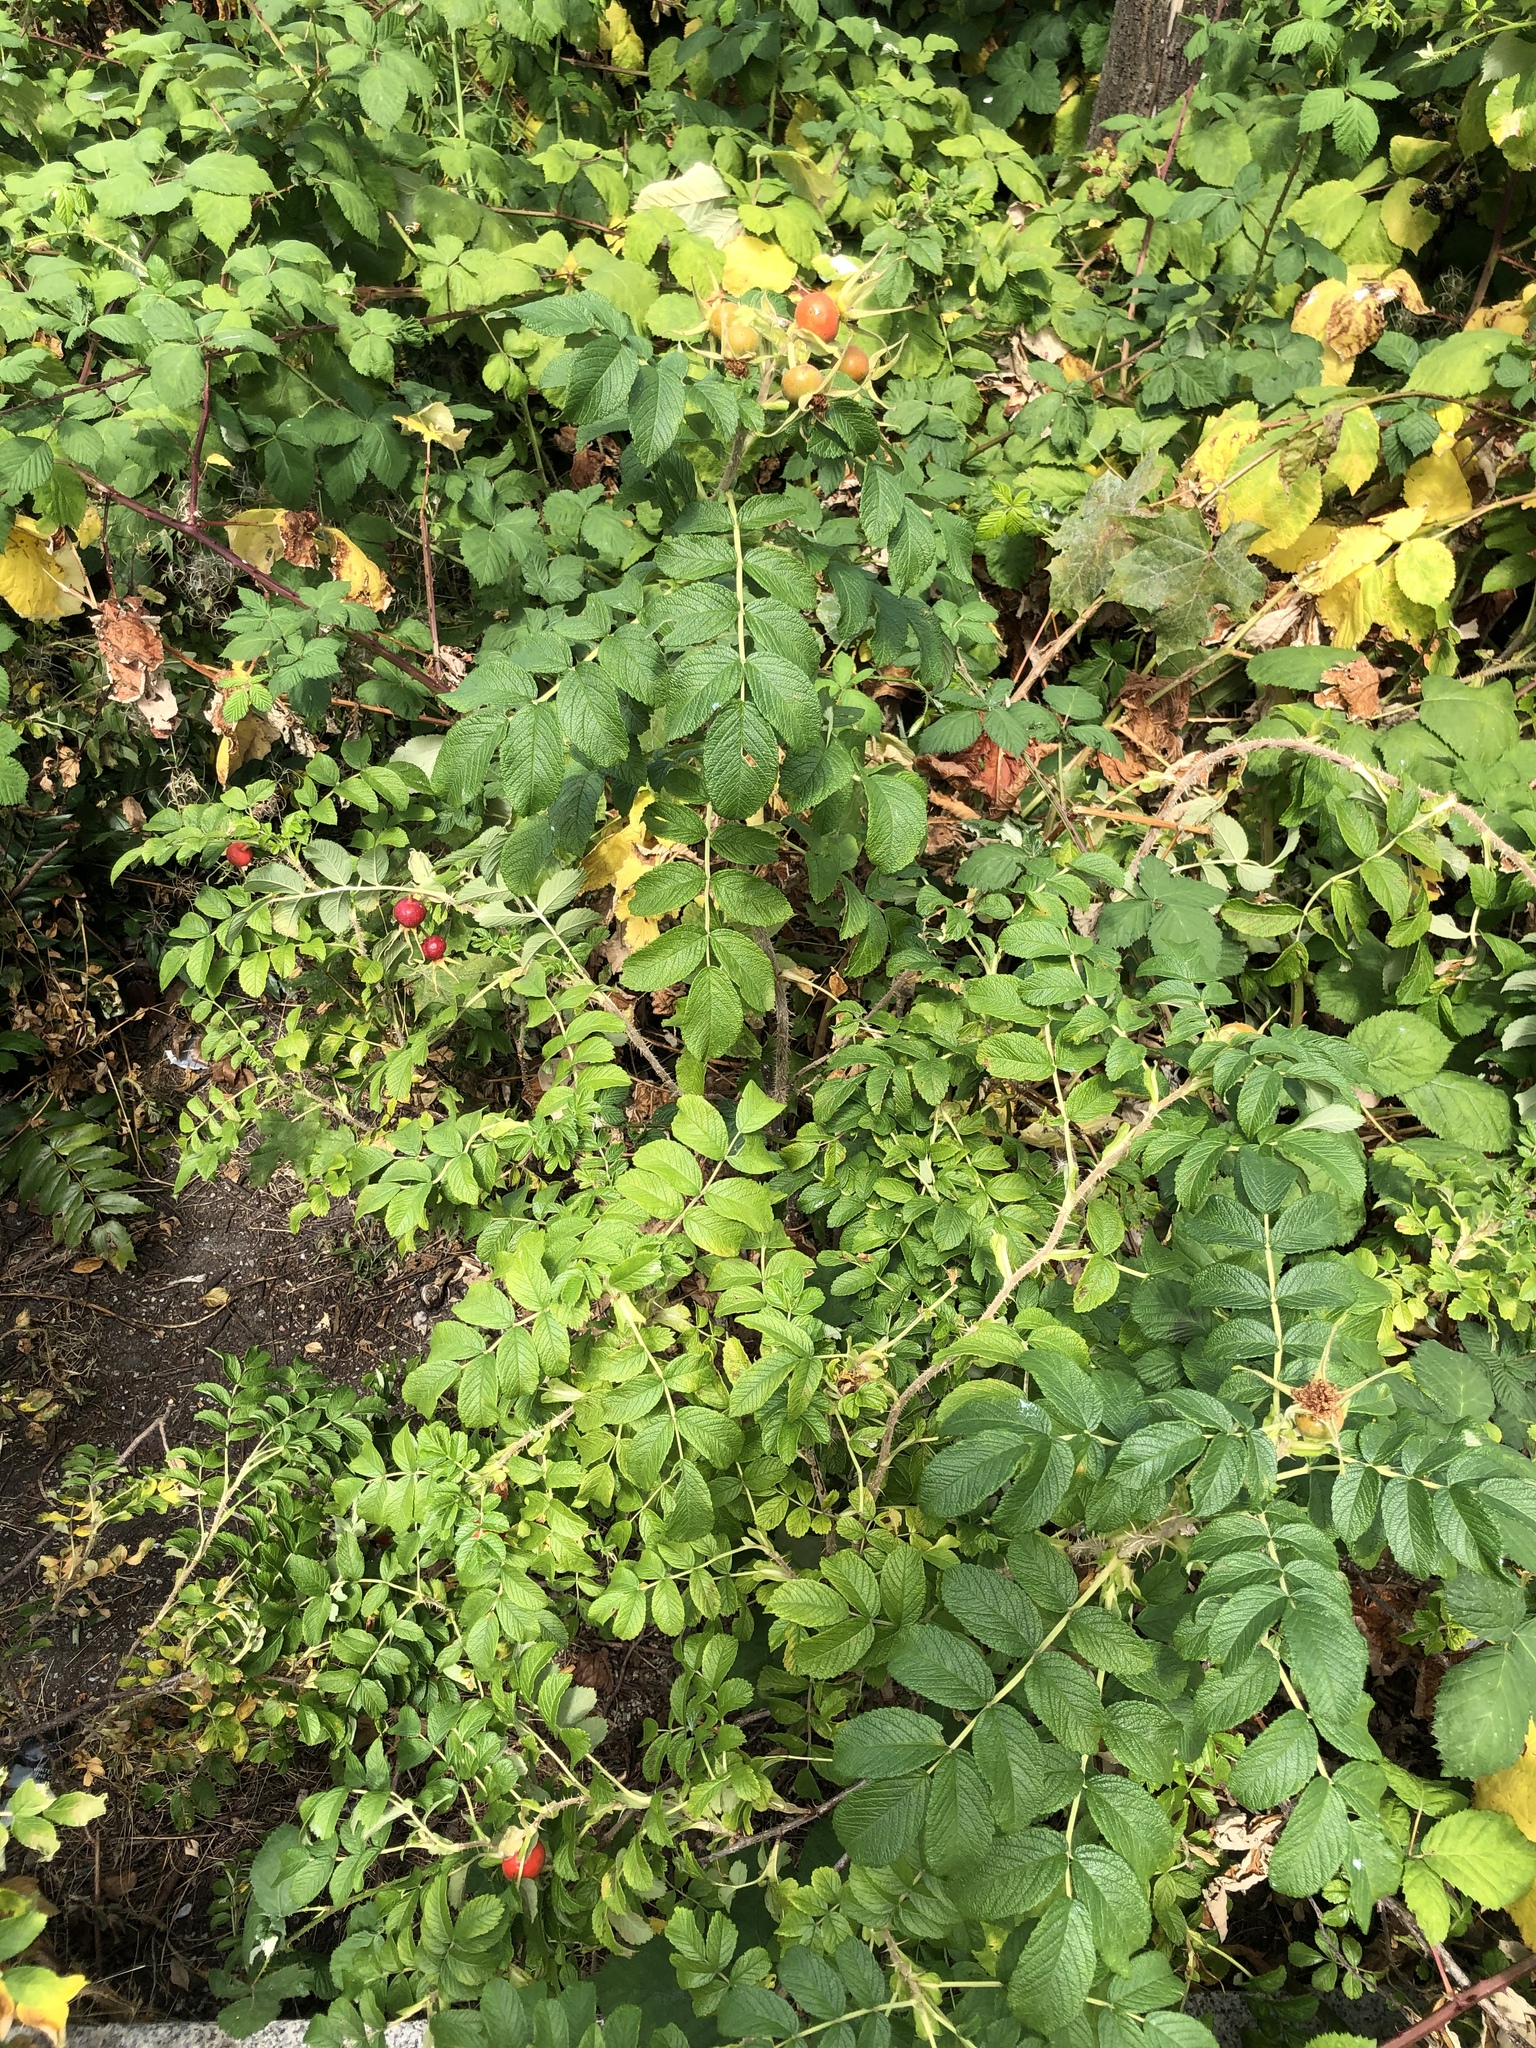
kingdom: Plantae
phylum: Tracheophyta
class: Magnoliopsida
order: Rosales
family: Rosaceae
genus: Rosa
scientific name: Rosa rugosa
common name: Japanese rose
